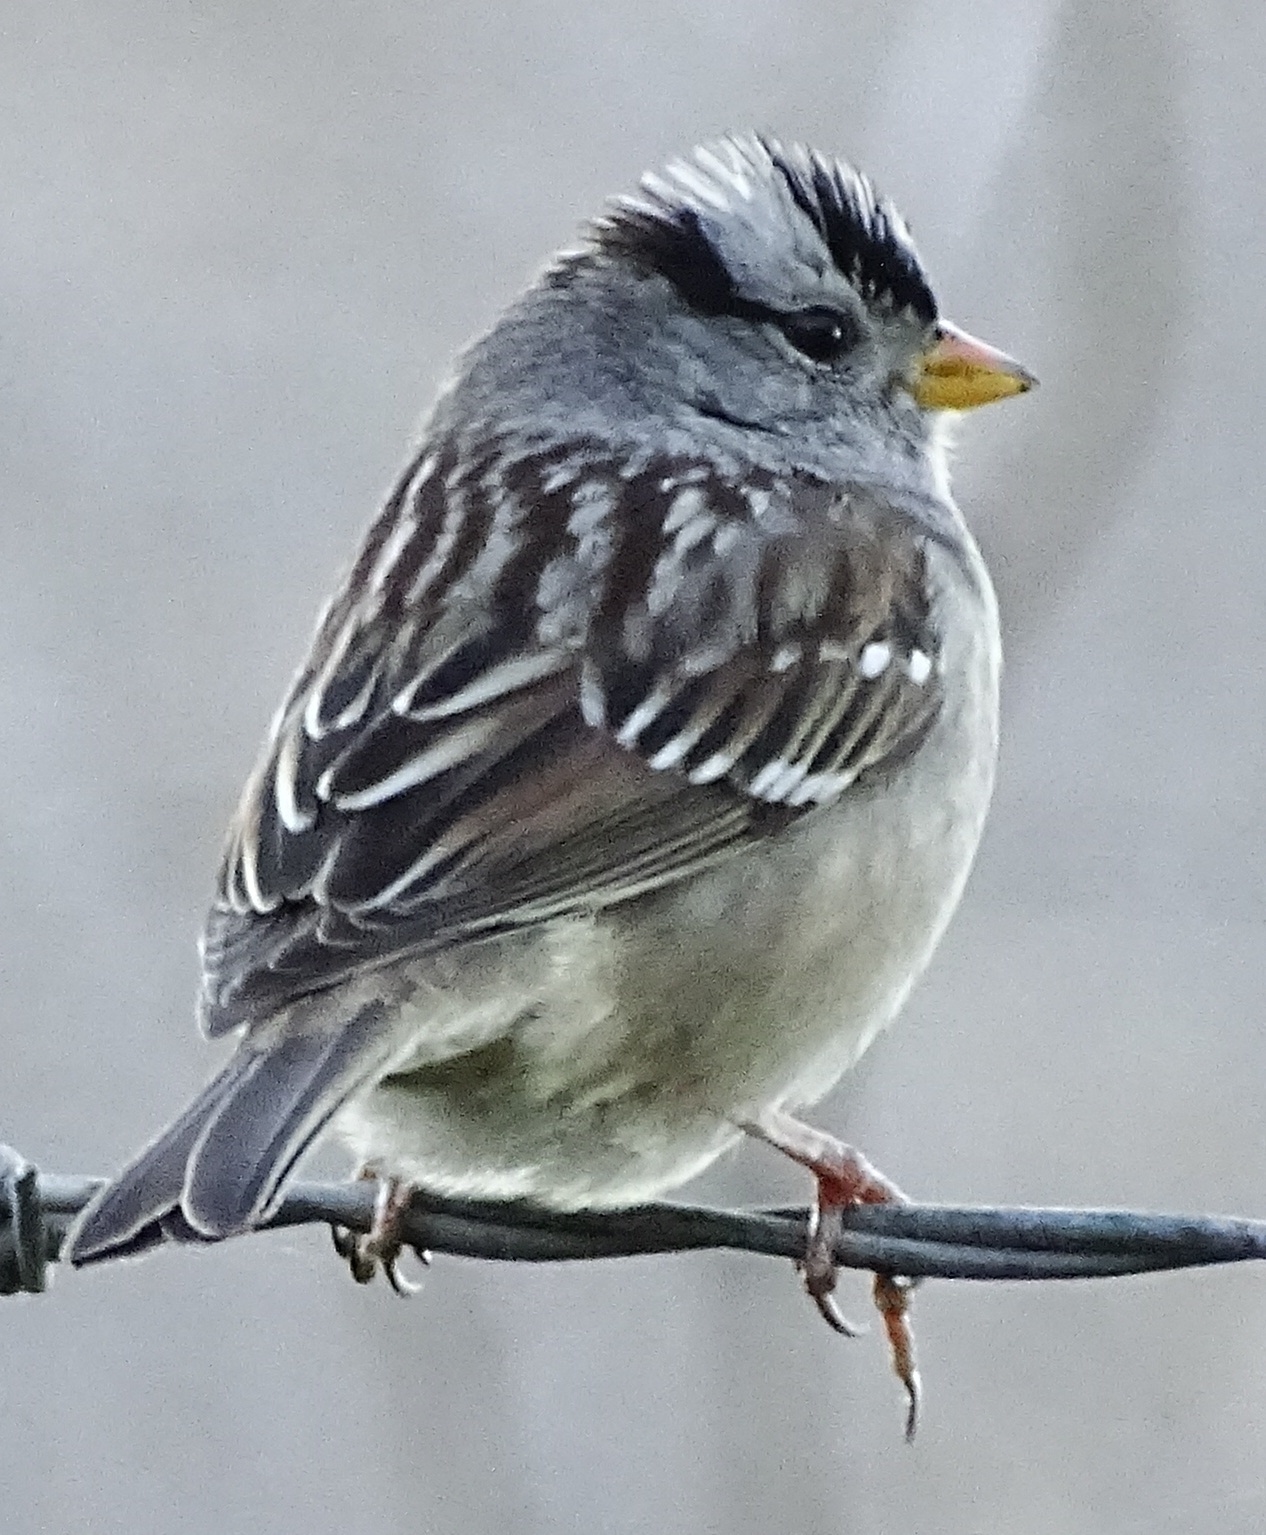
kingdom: Animalia
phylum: Chordata
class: Aves
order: Passeriformes
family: Passerellidae
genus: Zonotrichia
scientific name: Zonotrichia leucophrys
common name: White-crowned sparrow
